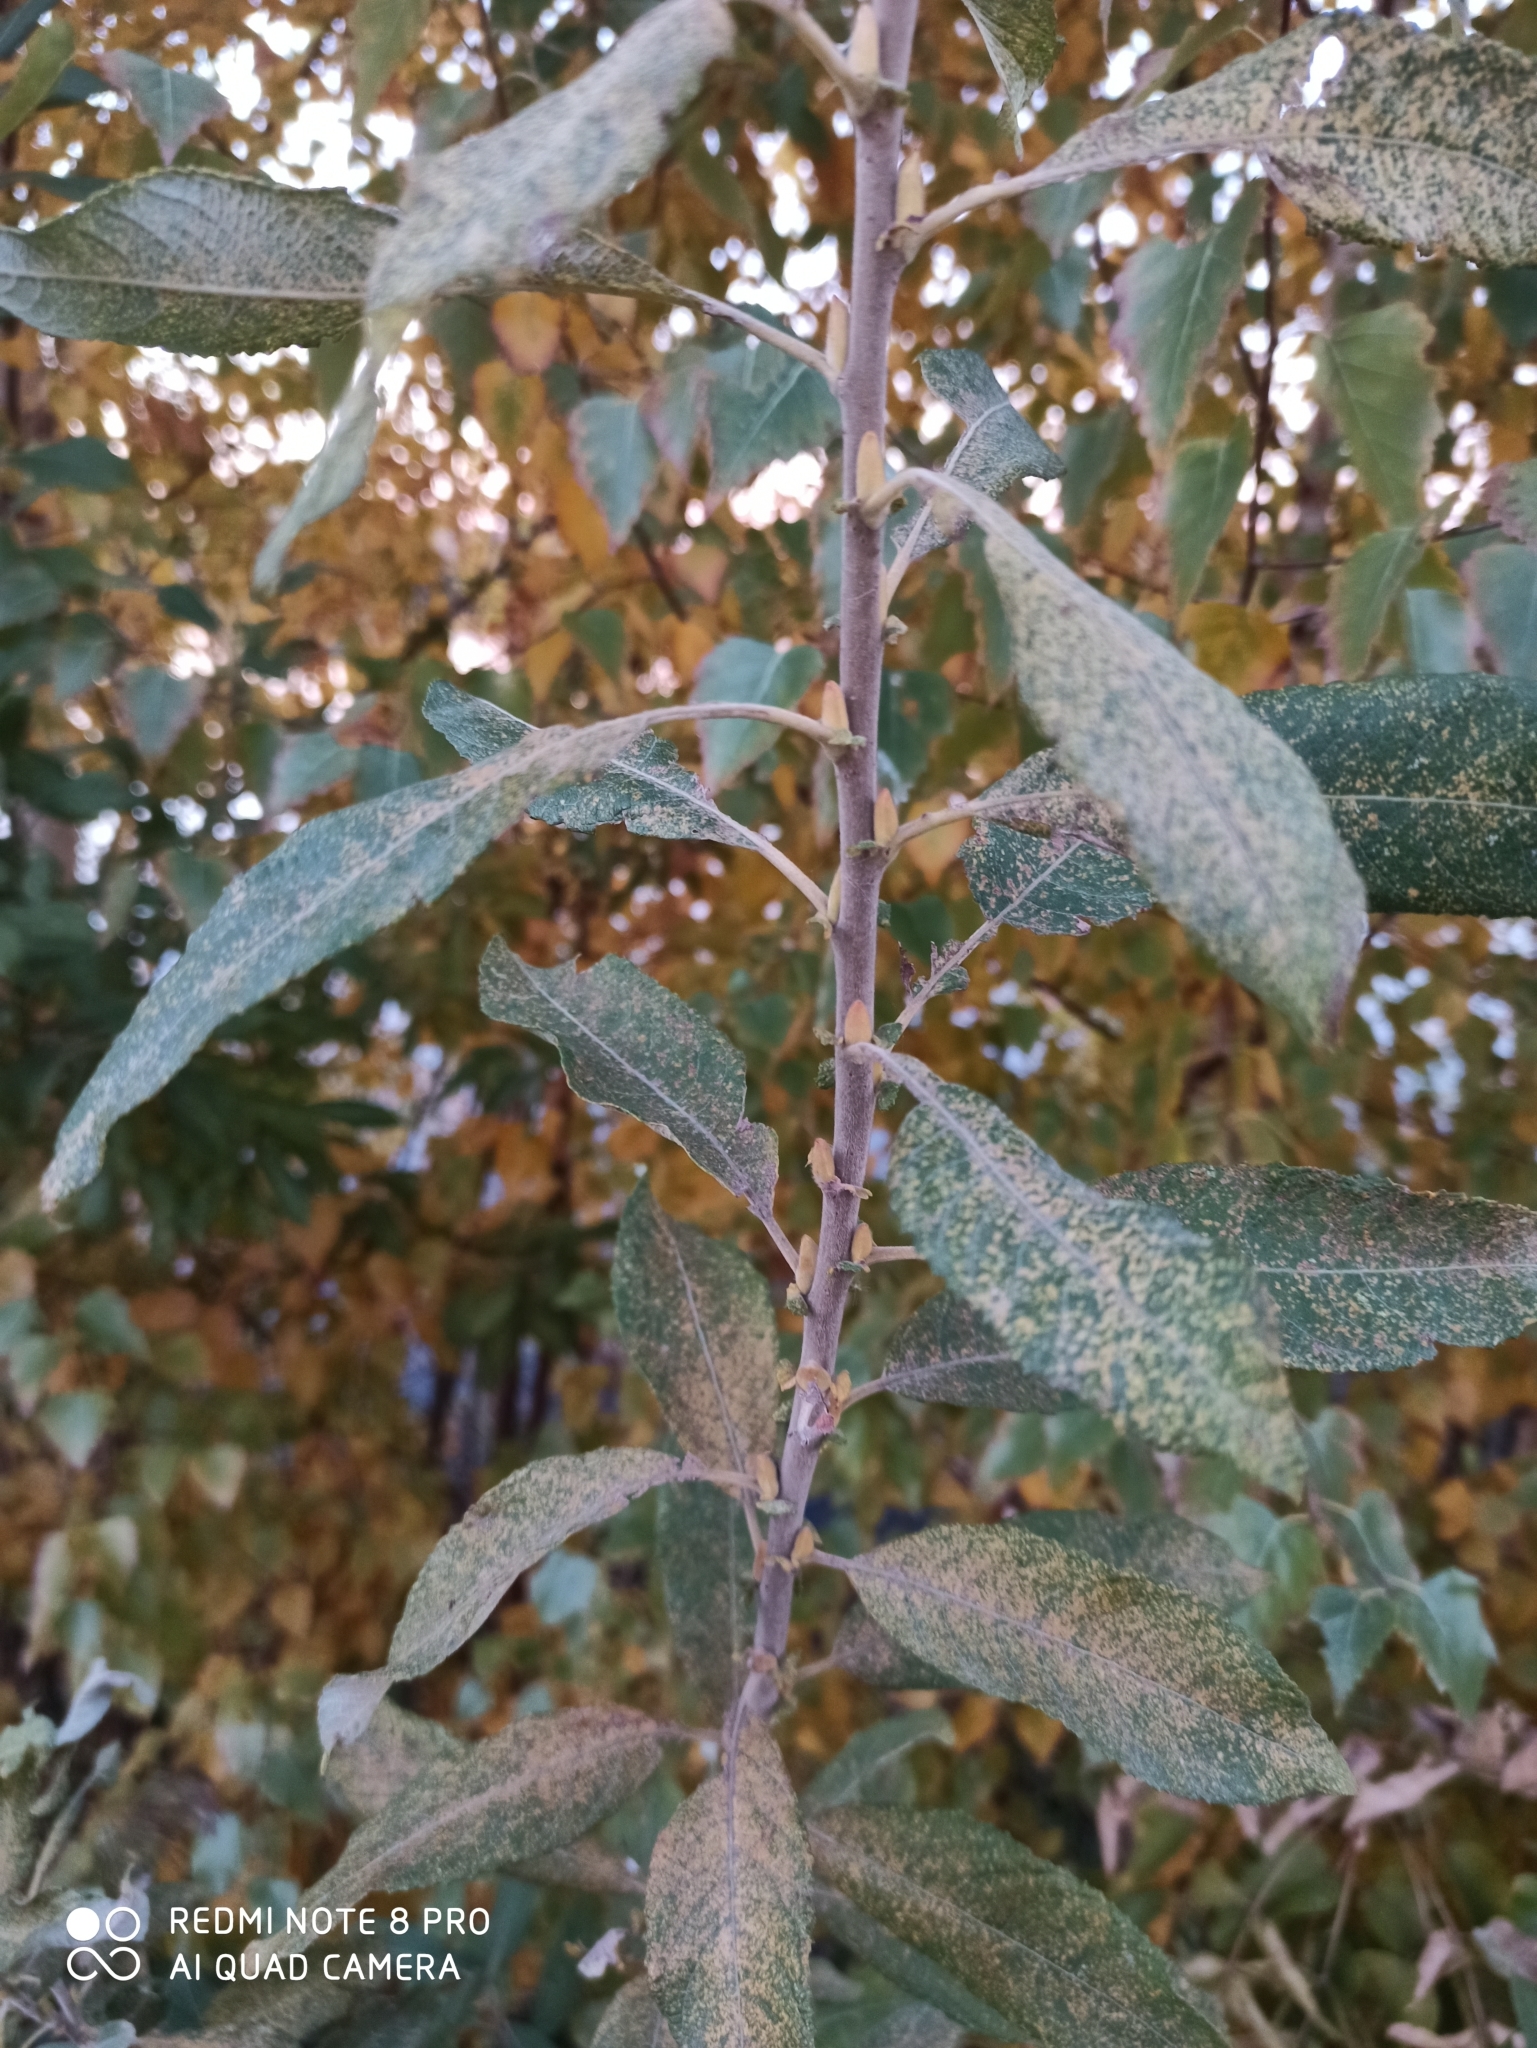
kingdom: Plantae
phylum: Tracheophyta
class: Magnoliopsida
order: Malpighiales
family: Salicaceae
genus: Salix
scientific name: Salix cinerea
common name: Common sallow
